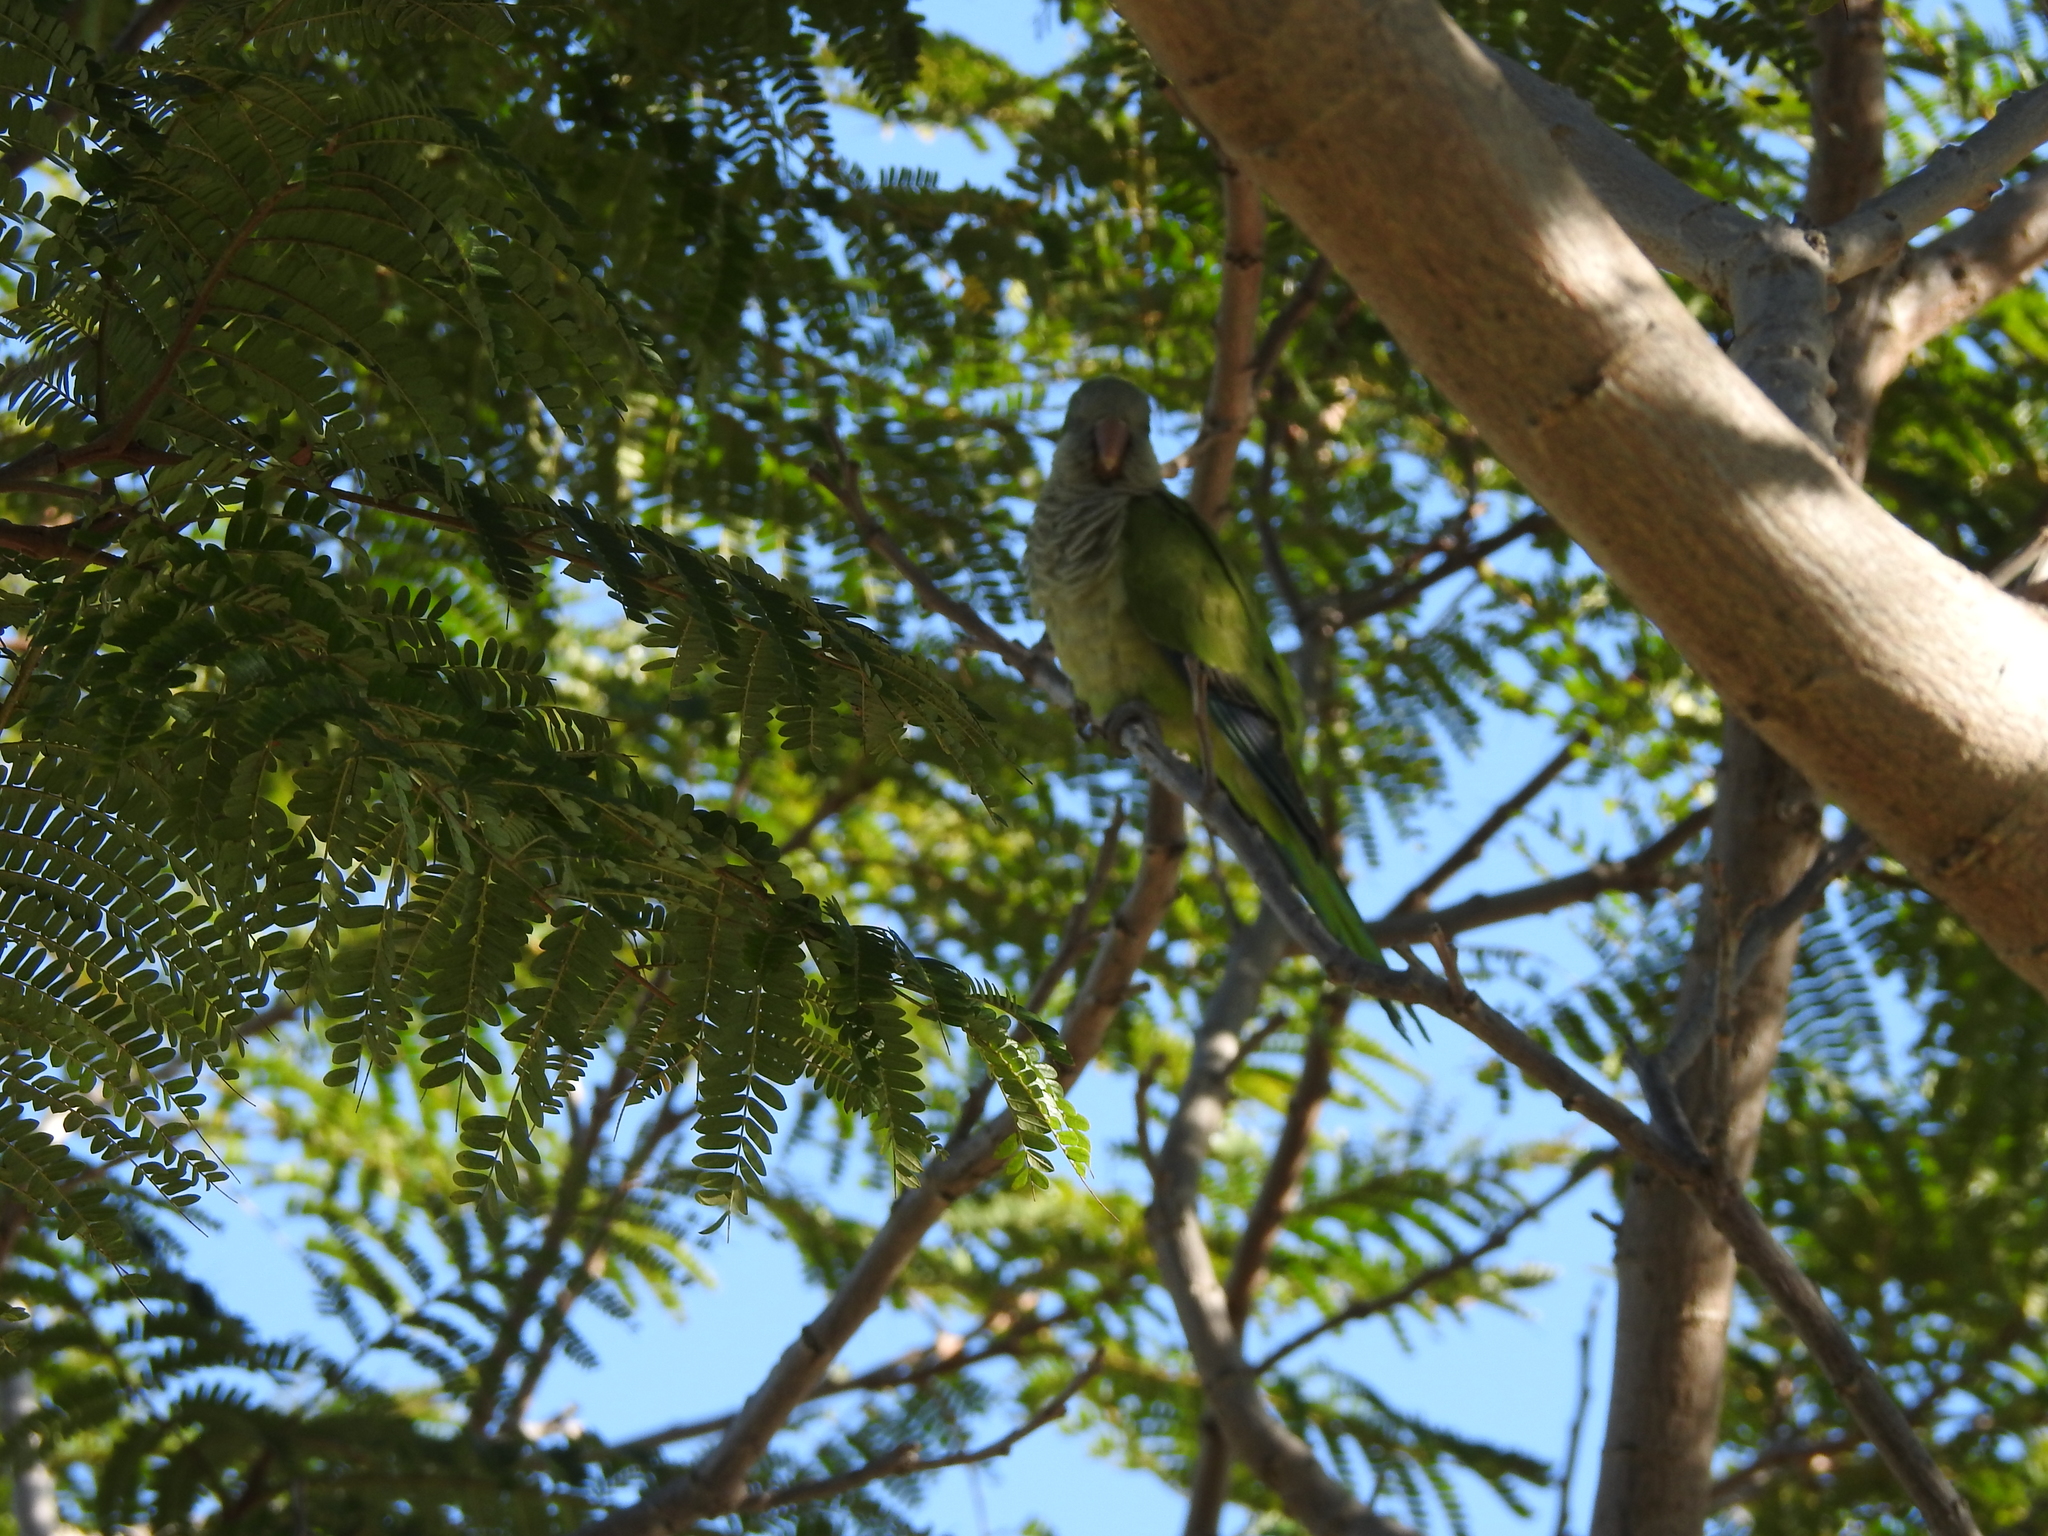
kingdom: Animalia
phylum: Chordata
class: Aves
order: Psittaciformes
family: Psittacidae
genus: Myiopsitta
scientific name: Myiopsitta monachus
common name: Monk parakeet
